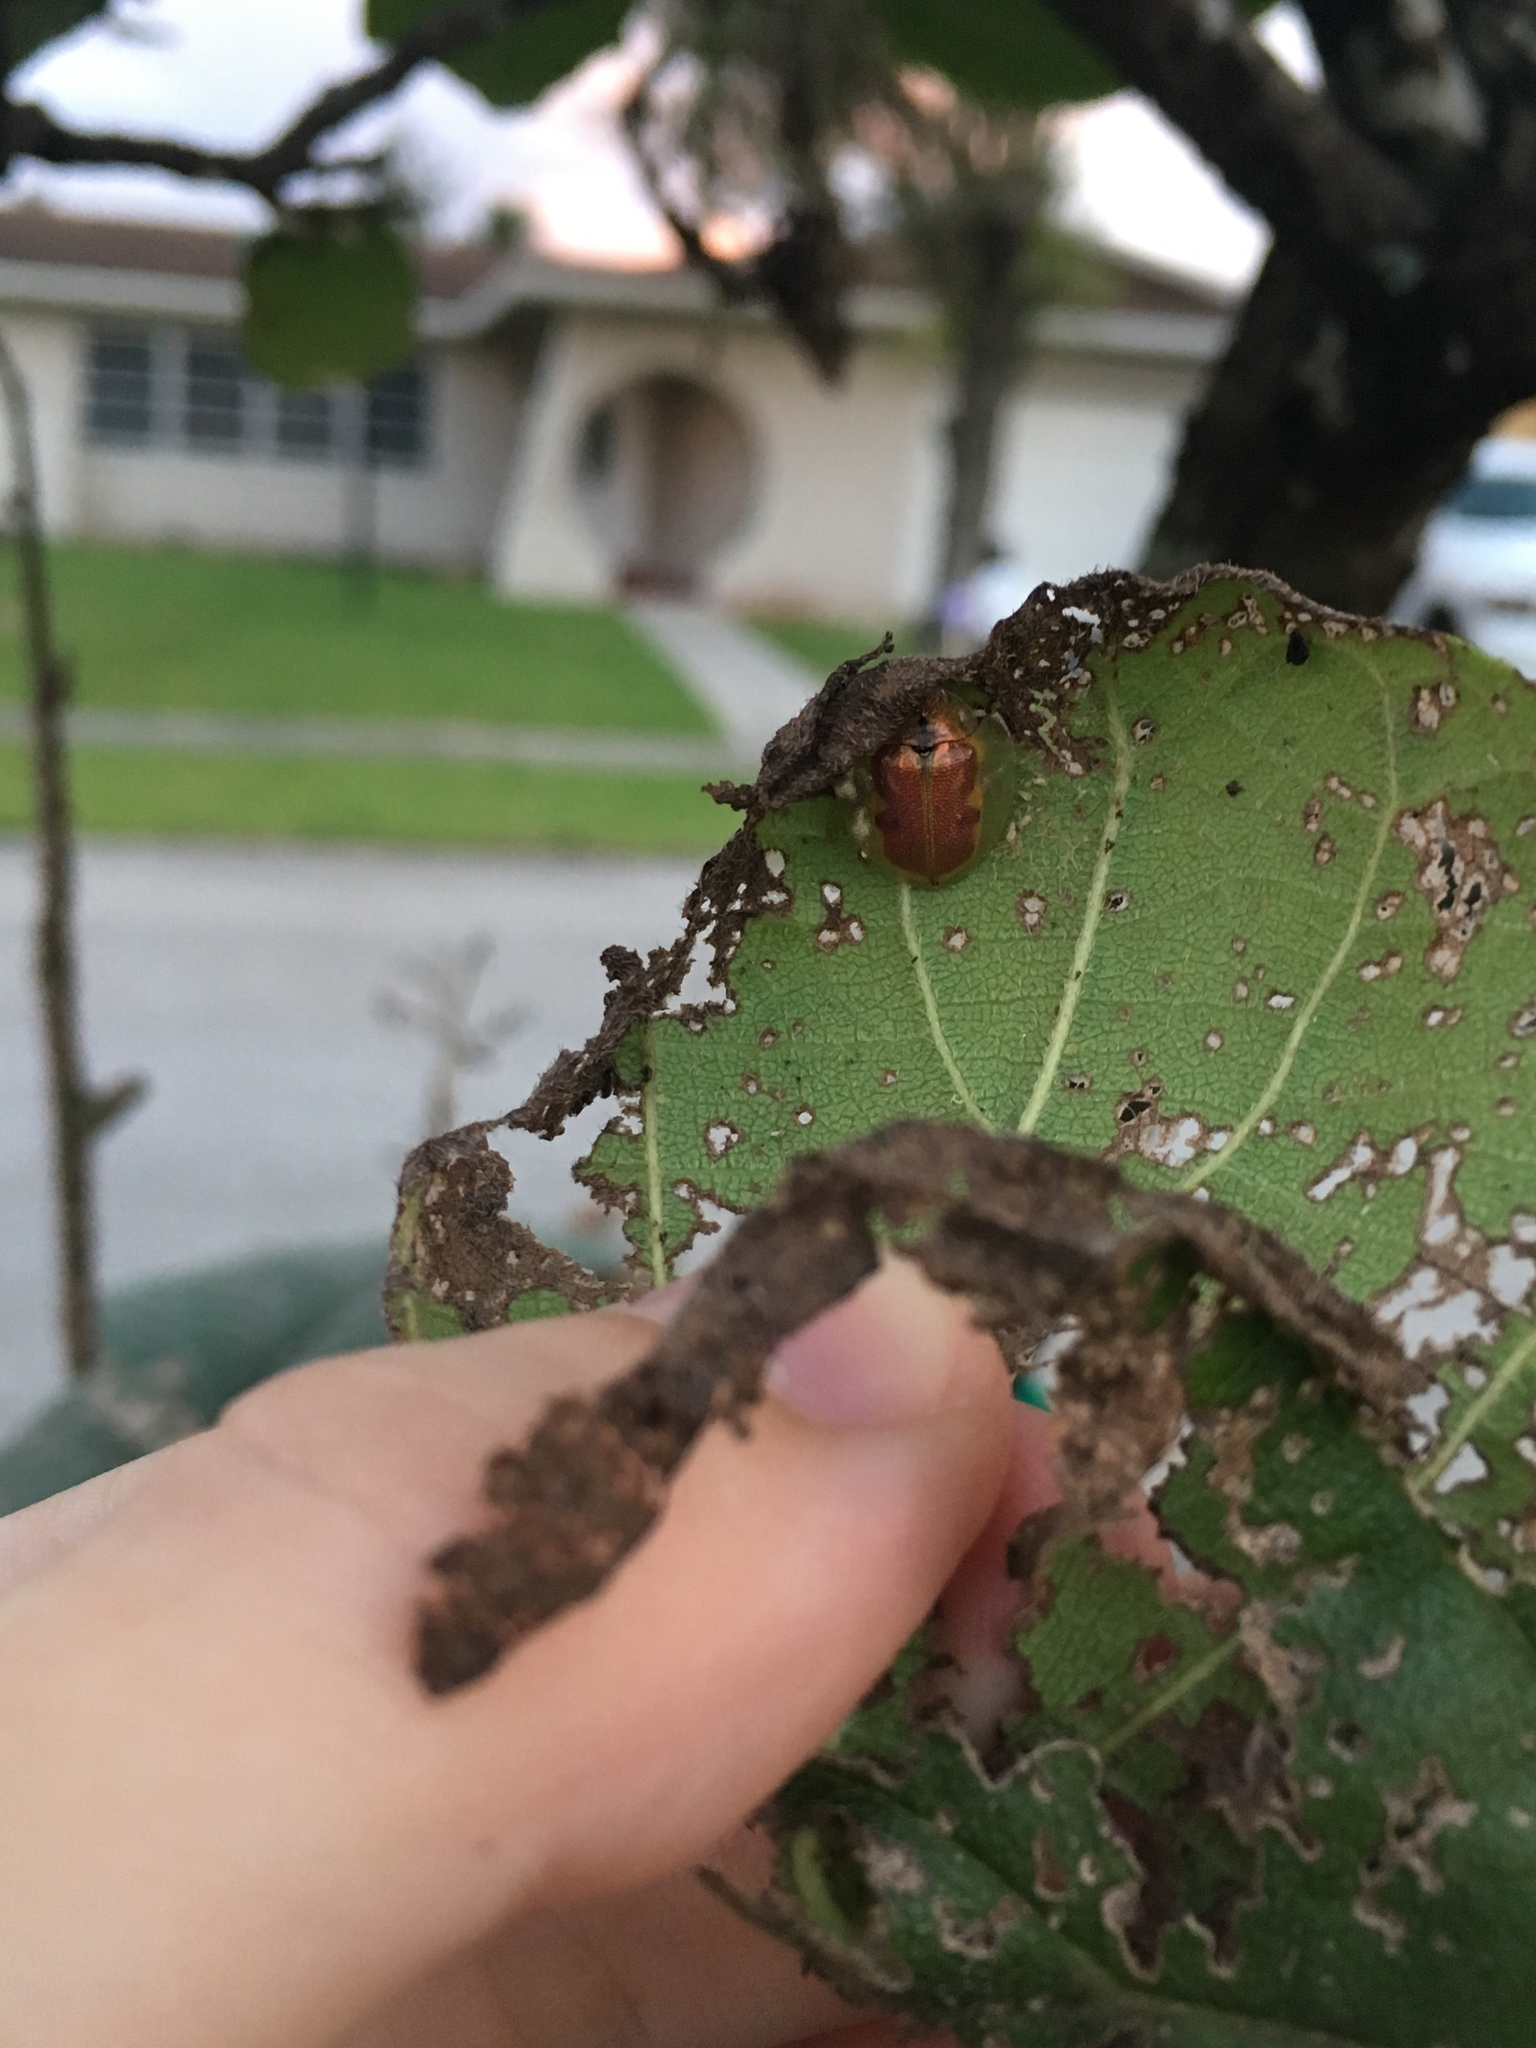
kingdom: Animalia
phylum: Arthropoda
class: Insecta
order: Coleoptera
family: Chrysomelidae
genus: Eurypepla
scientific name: Eurypepla calochroma
